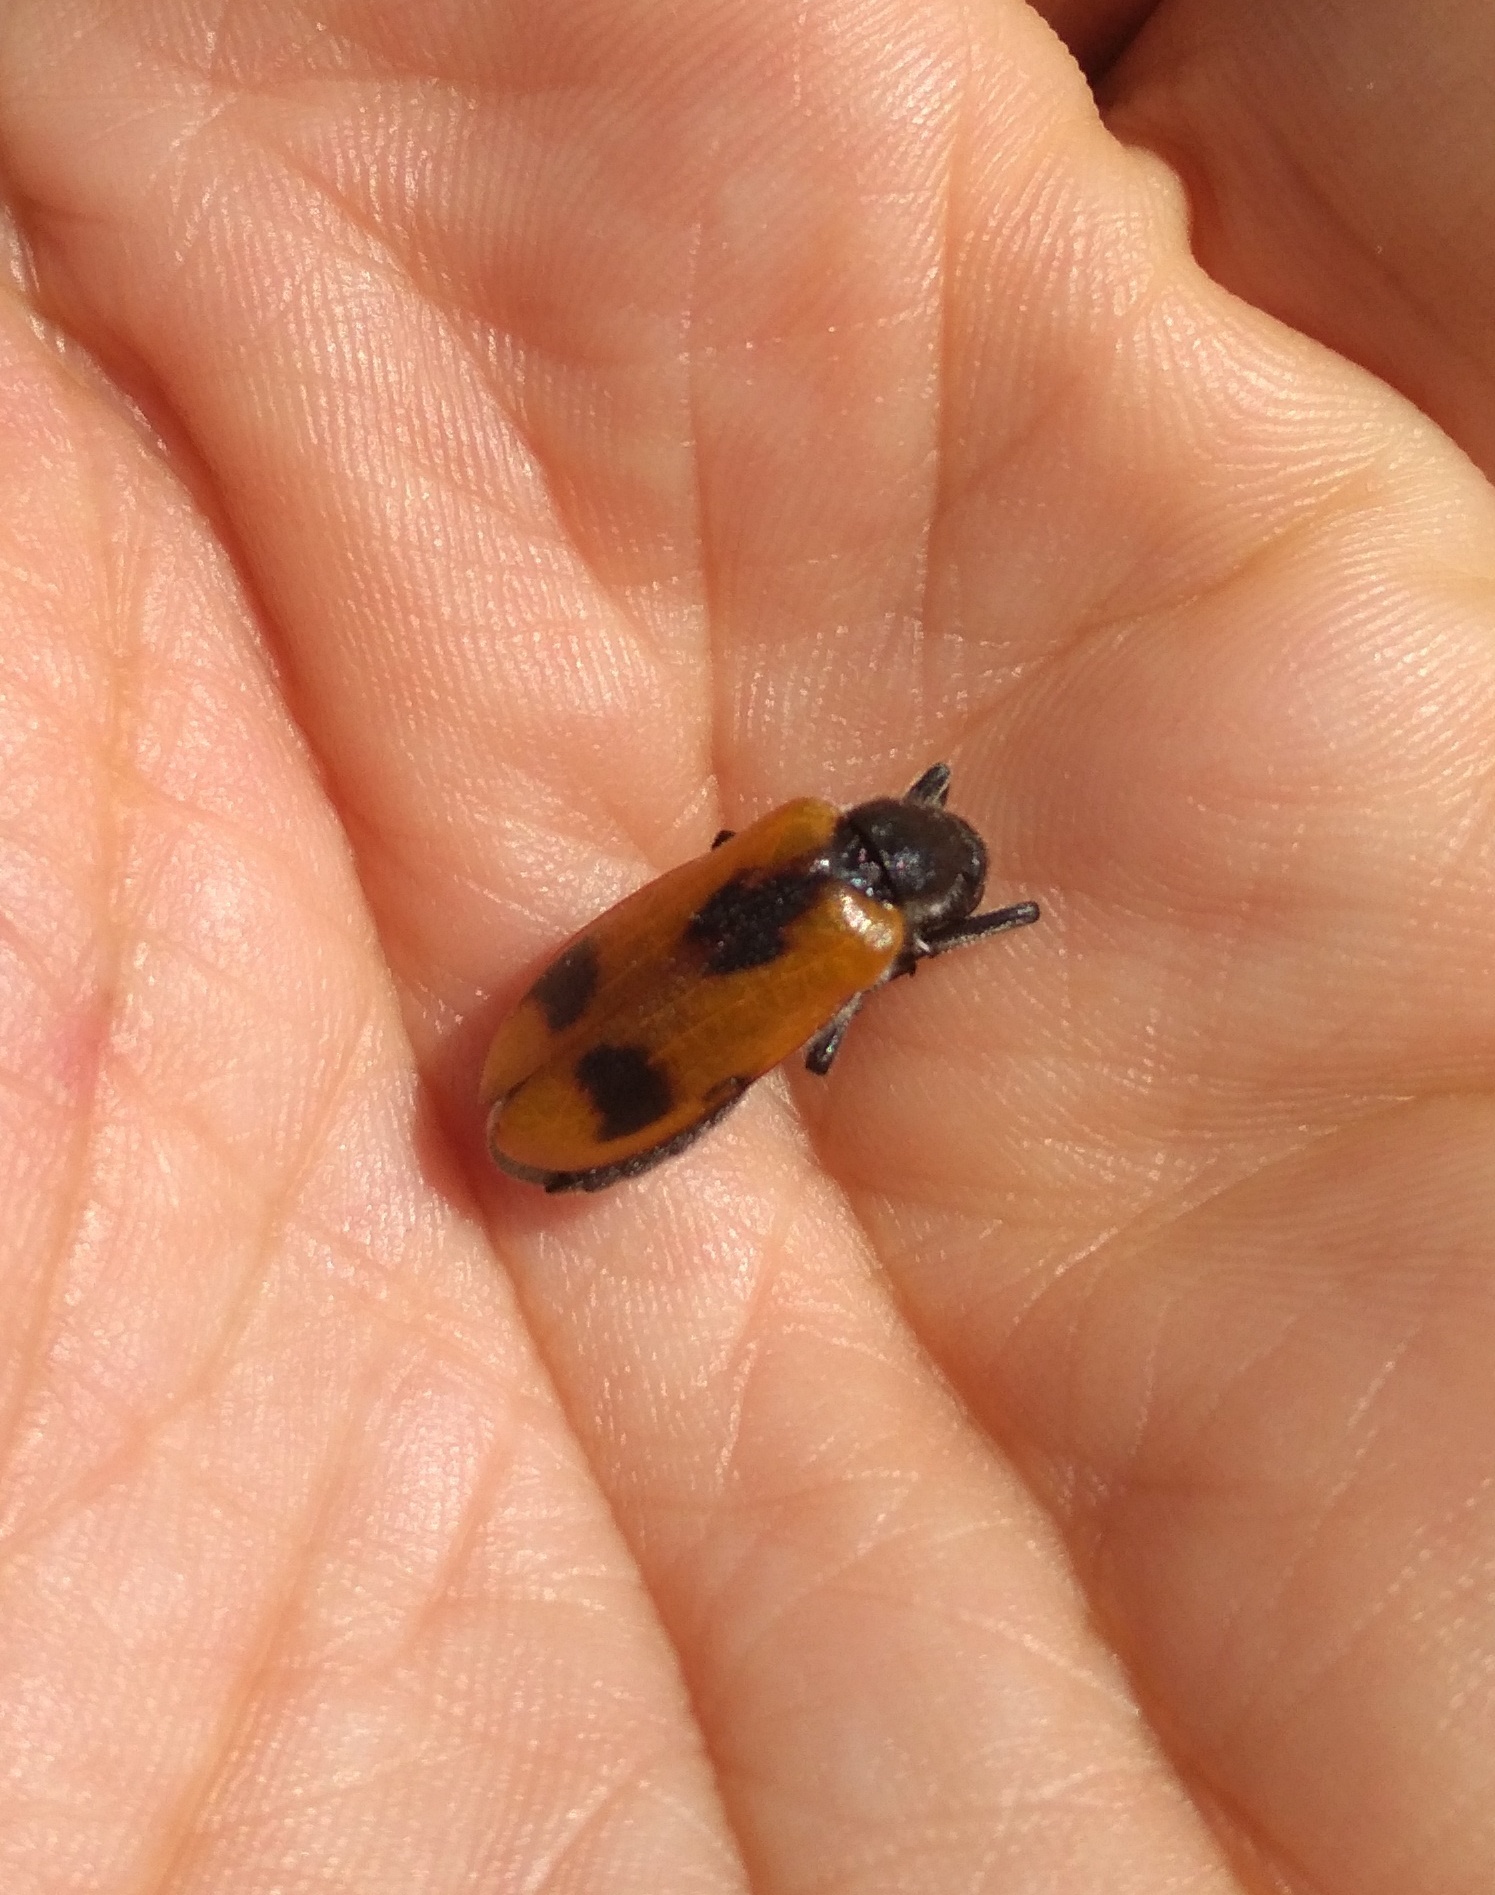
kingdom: Animalia
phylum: Arthropoda
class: Insecta
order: Coleoptera
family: Meloidae
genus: Lydus
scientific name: Lydus trimaculatus
